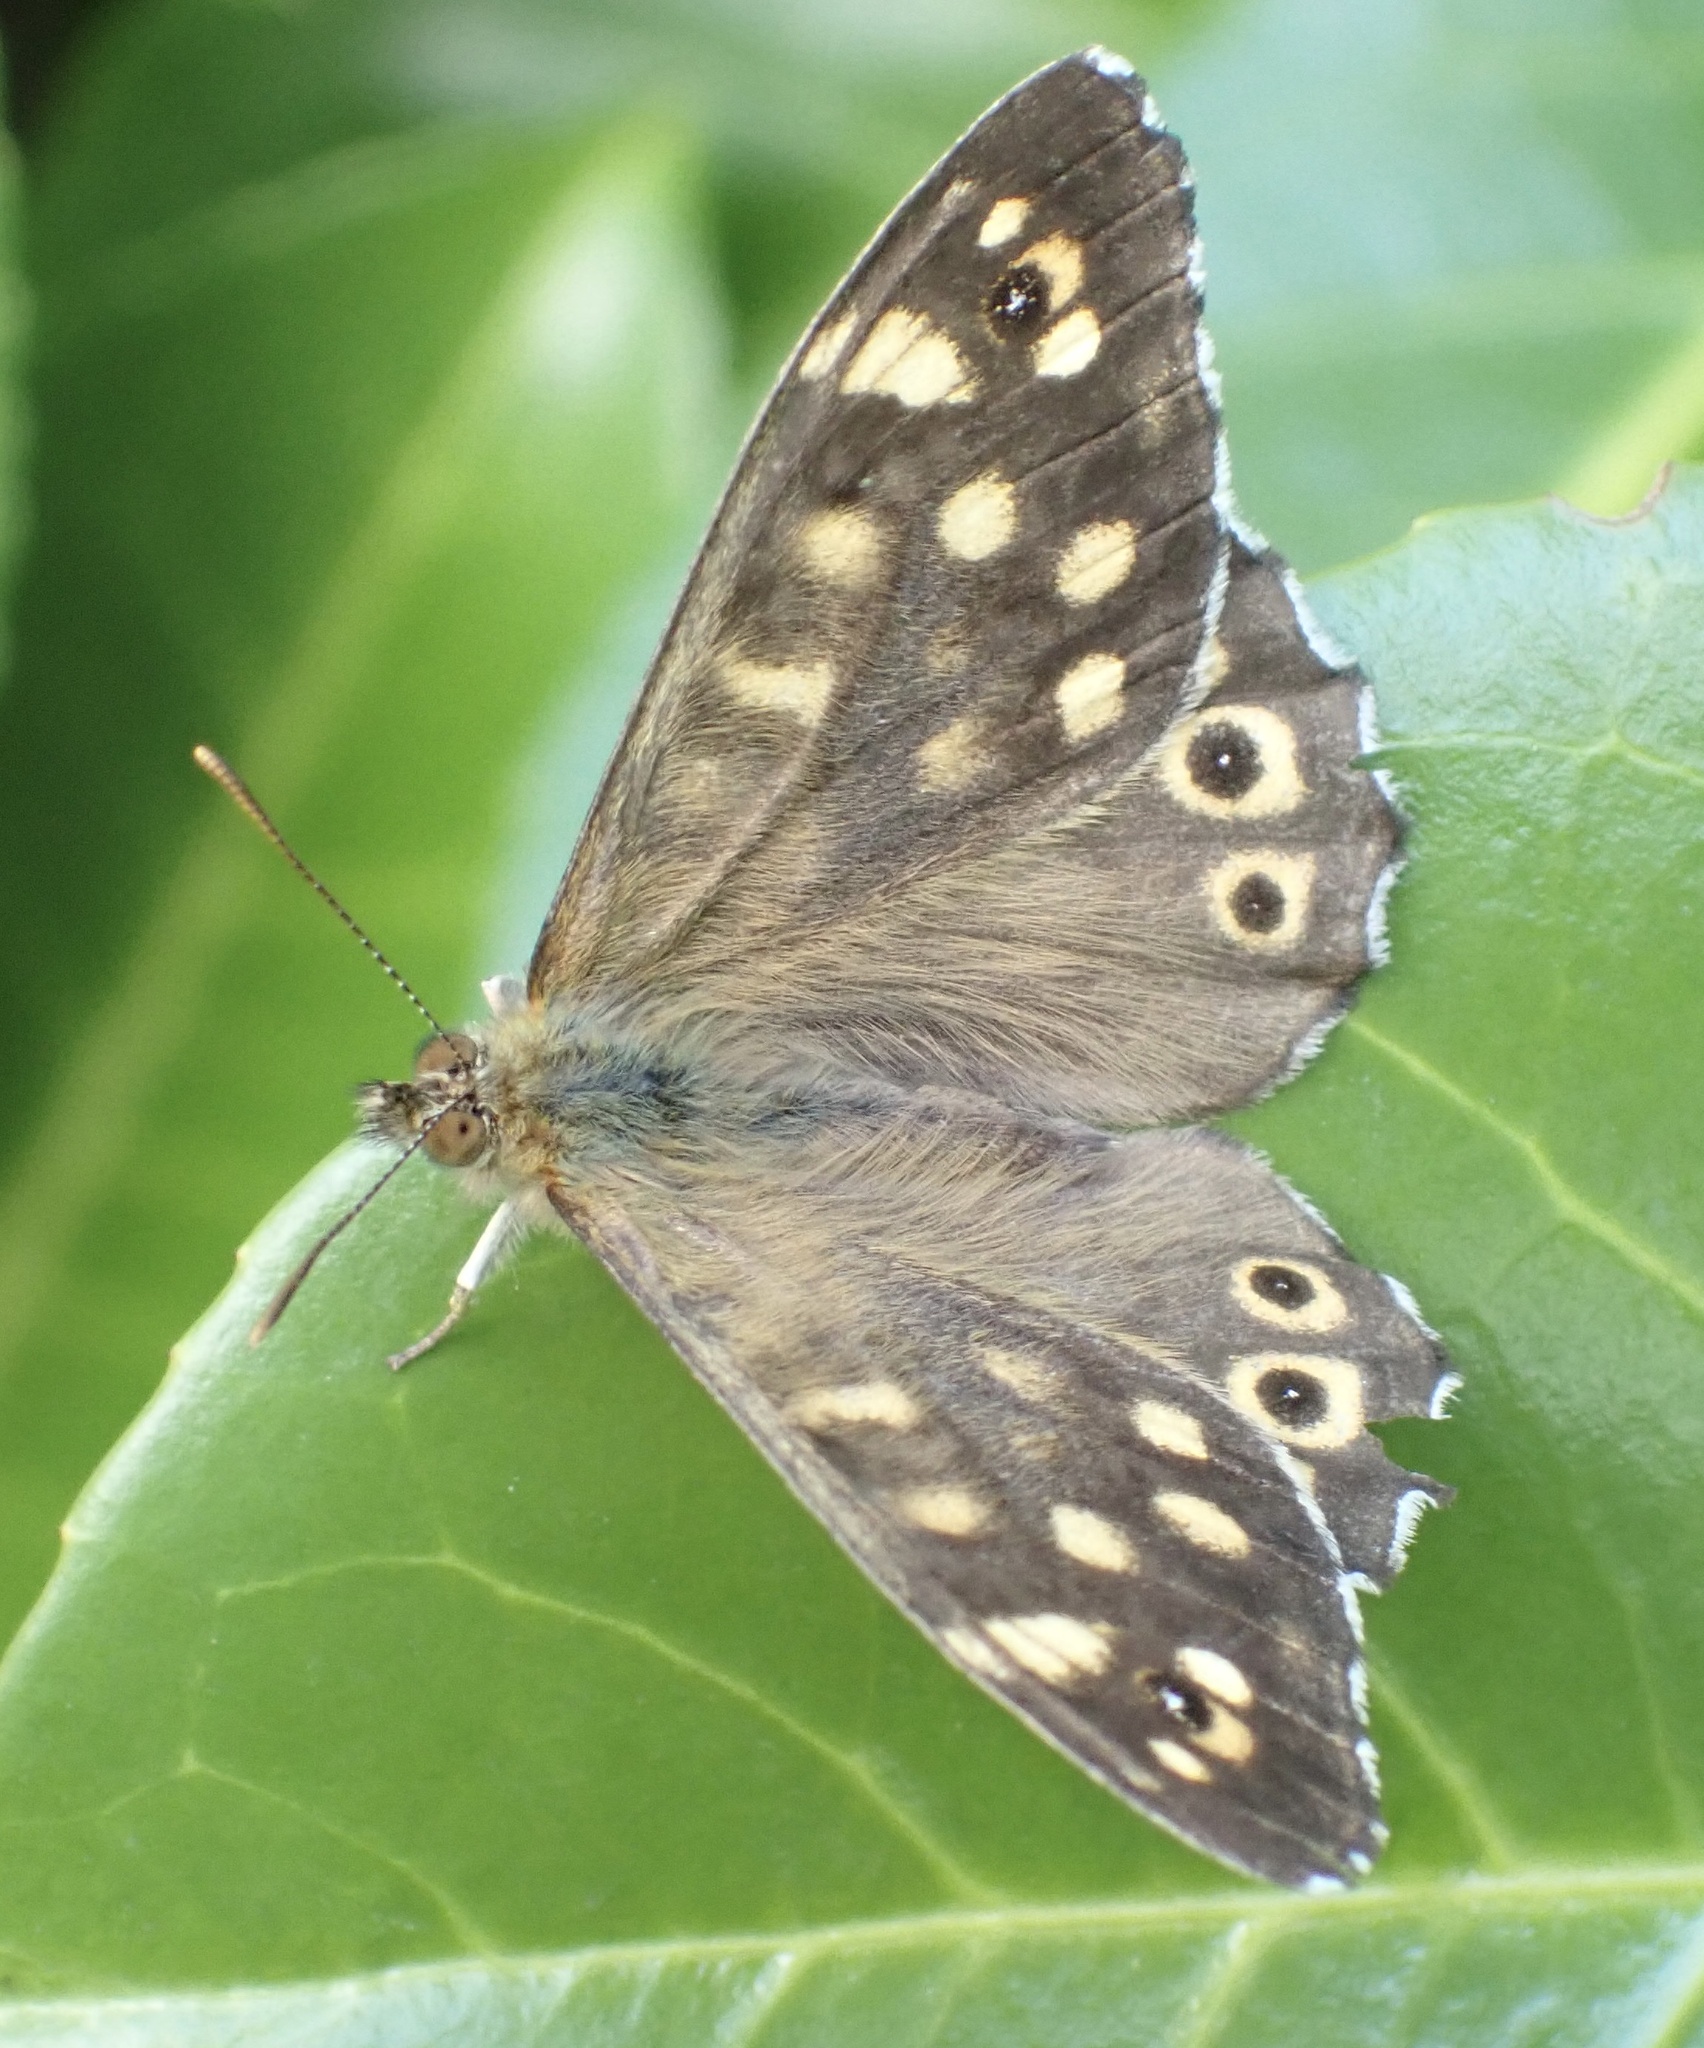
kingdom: Animalia
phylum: Arthropoda
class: Insecta
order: Lepidoptera
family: Nymphalidae
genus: Pararge
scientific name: Pararge aegeria
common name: Speckled wood
